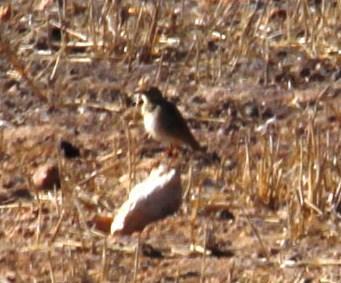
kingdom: Animalia
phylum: Chordata
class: Aves
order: Passeriformes
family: Alaudidae
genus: Calandrella
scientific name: Calandrella cinerea
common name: Red-capped lark
